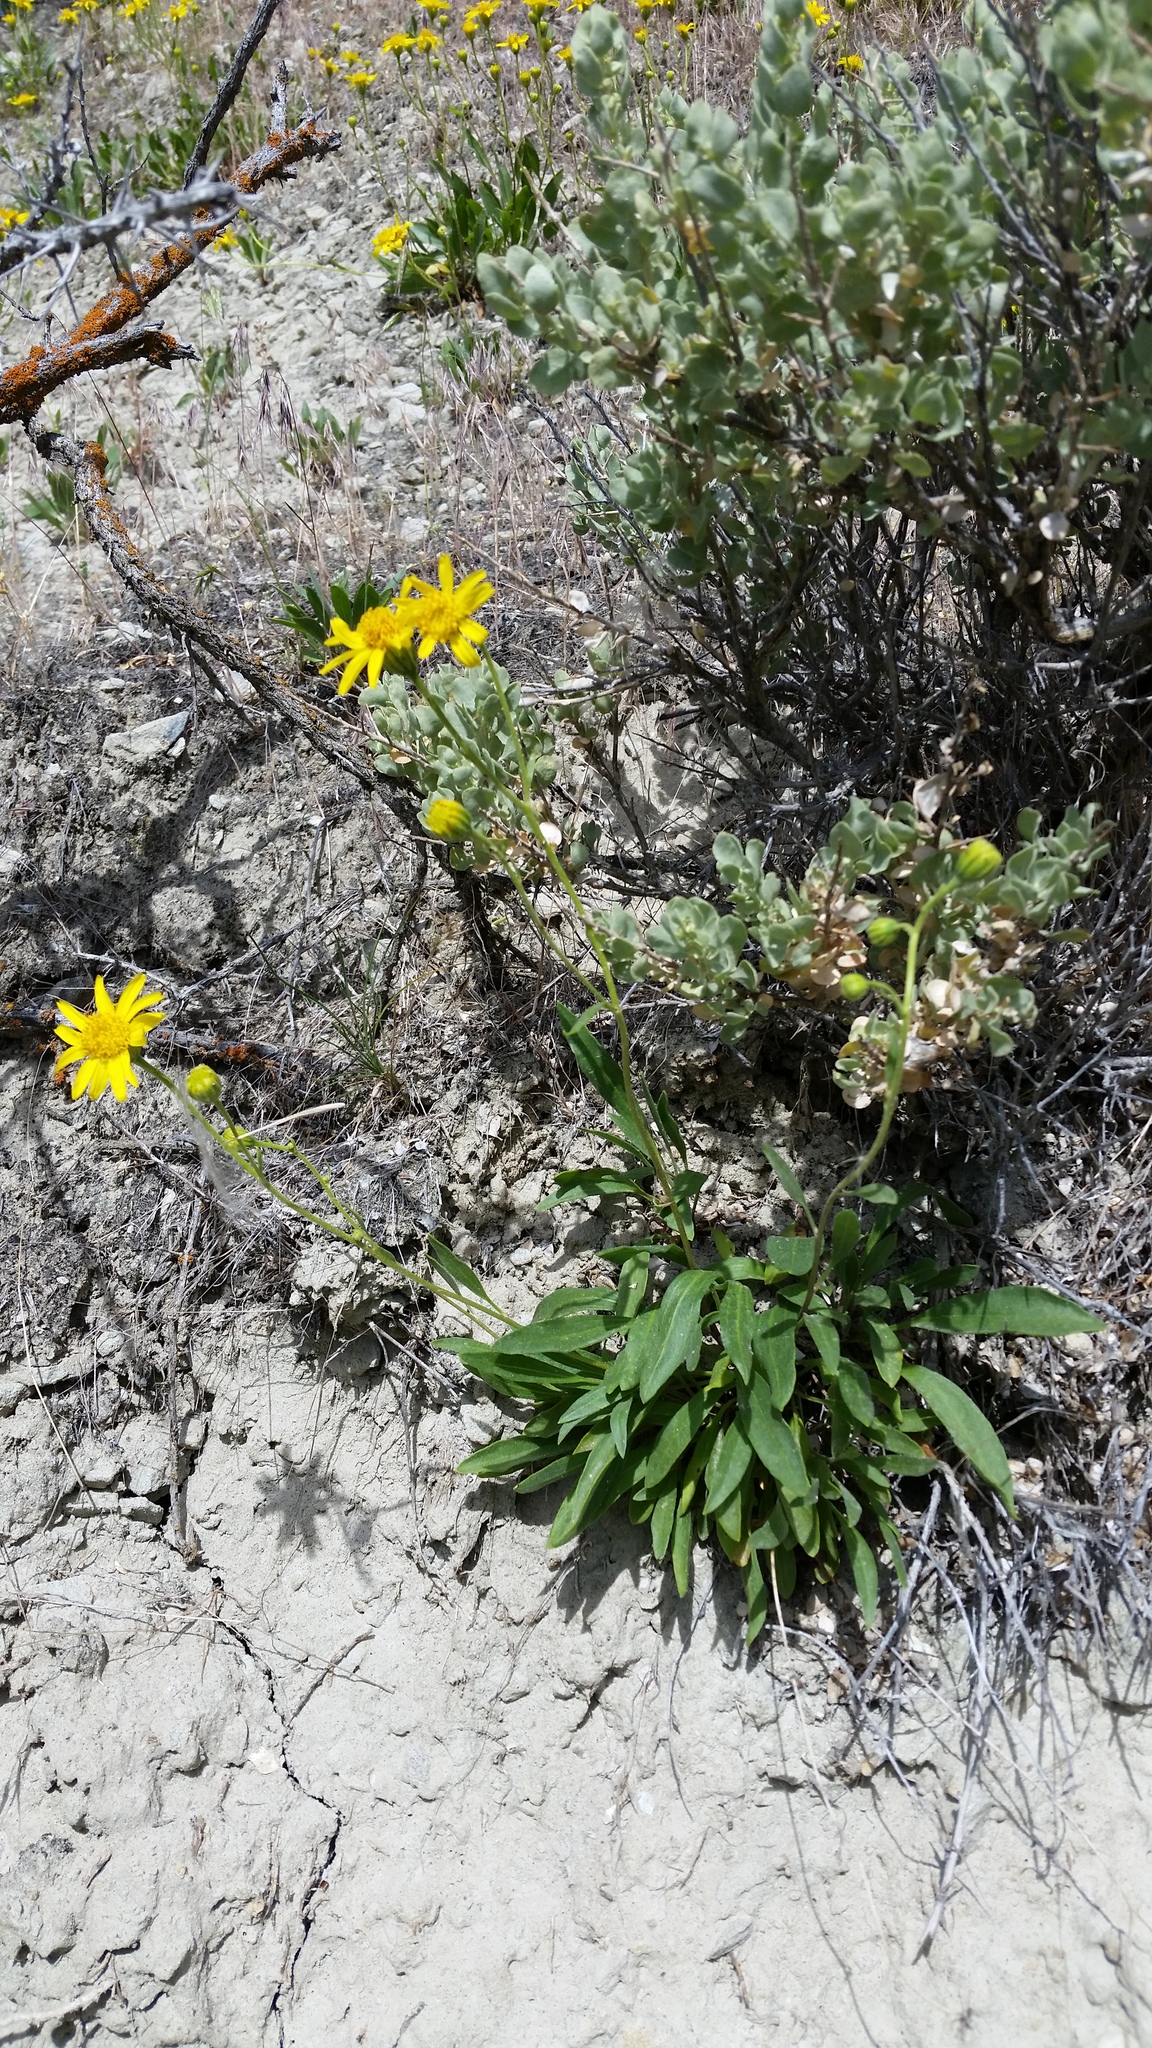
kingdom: Plantae
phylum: Tracheophyta
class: Magnoliopsida
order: Asterales
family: Asteraceae
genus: Platyschkuhria
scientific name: Platyschkuhria integrifolia
